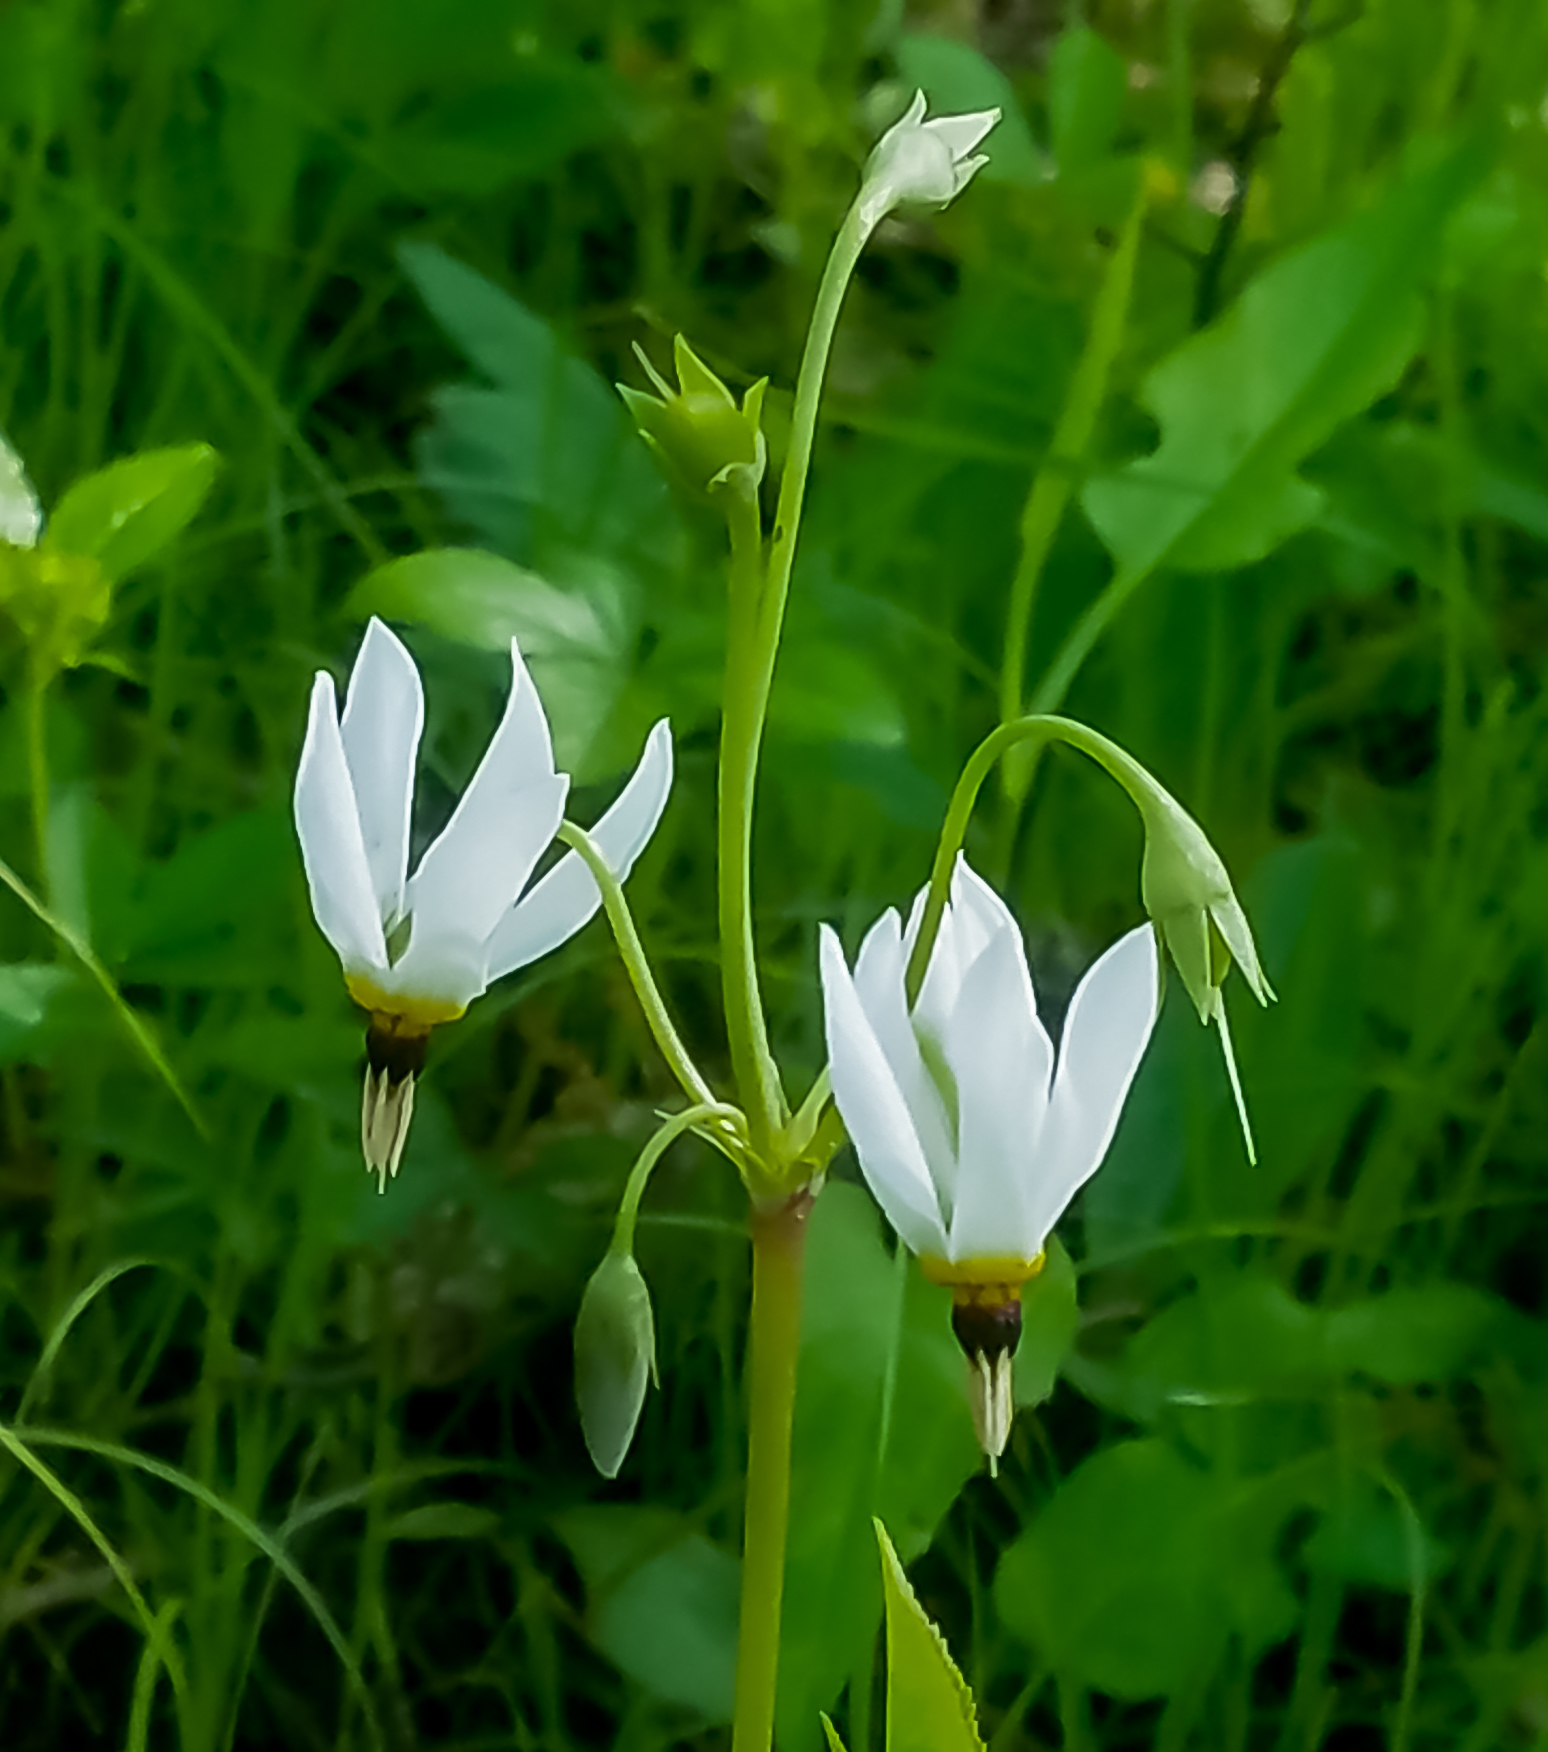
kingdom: Plantae
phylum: Tracheophyta
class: Magnoliopsida
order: Ericales
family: Primulaceae
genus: Dodecatheon
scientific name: Dodecatheon meadia
